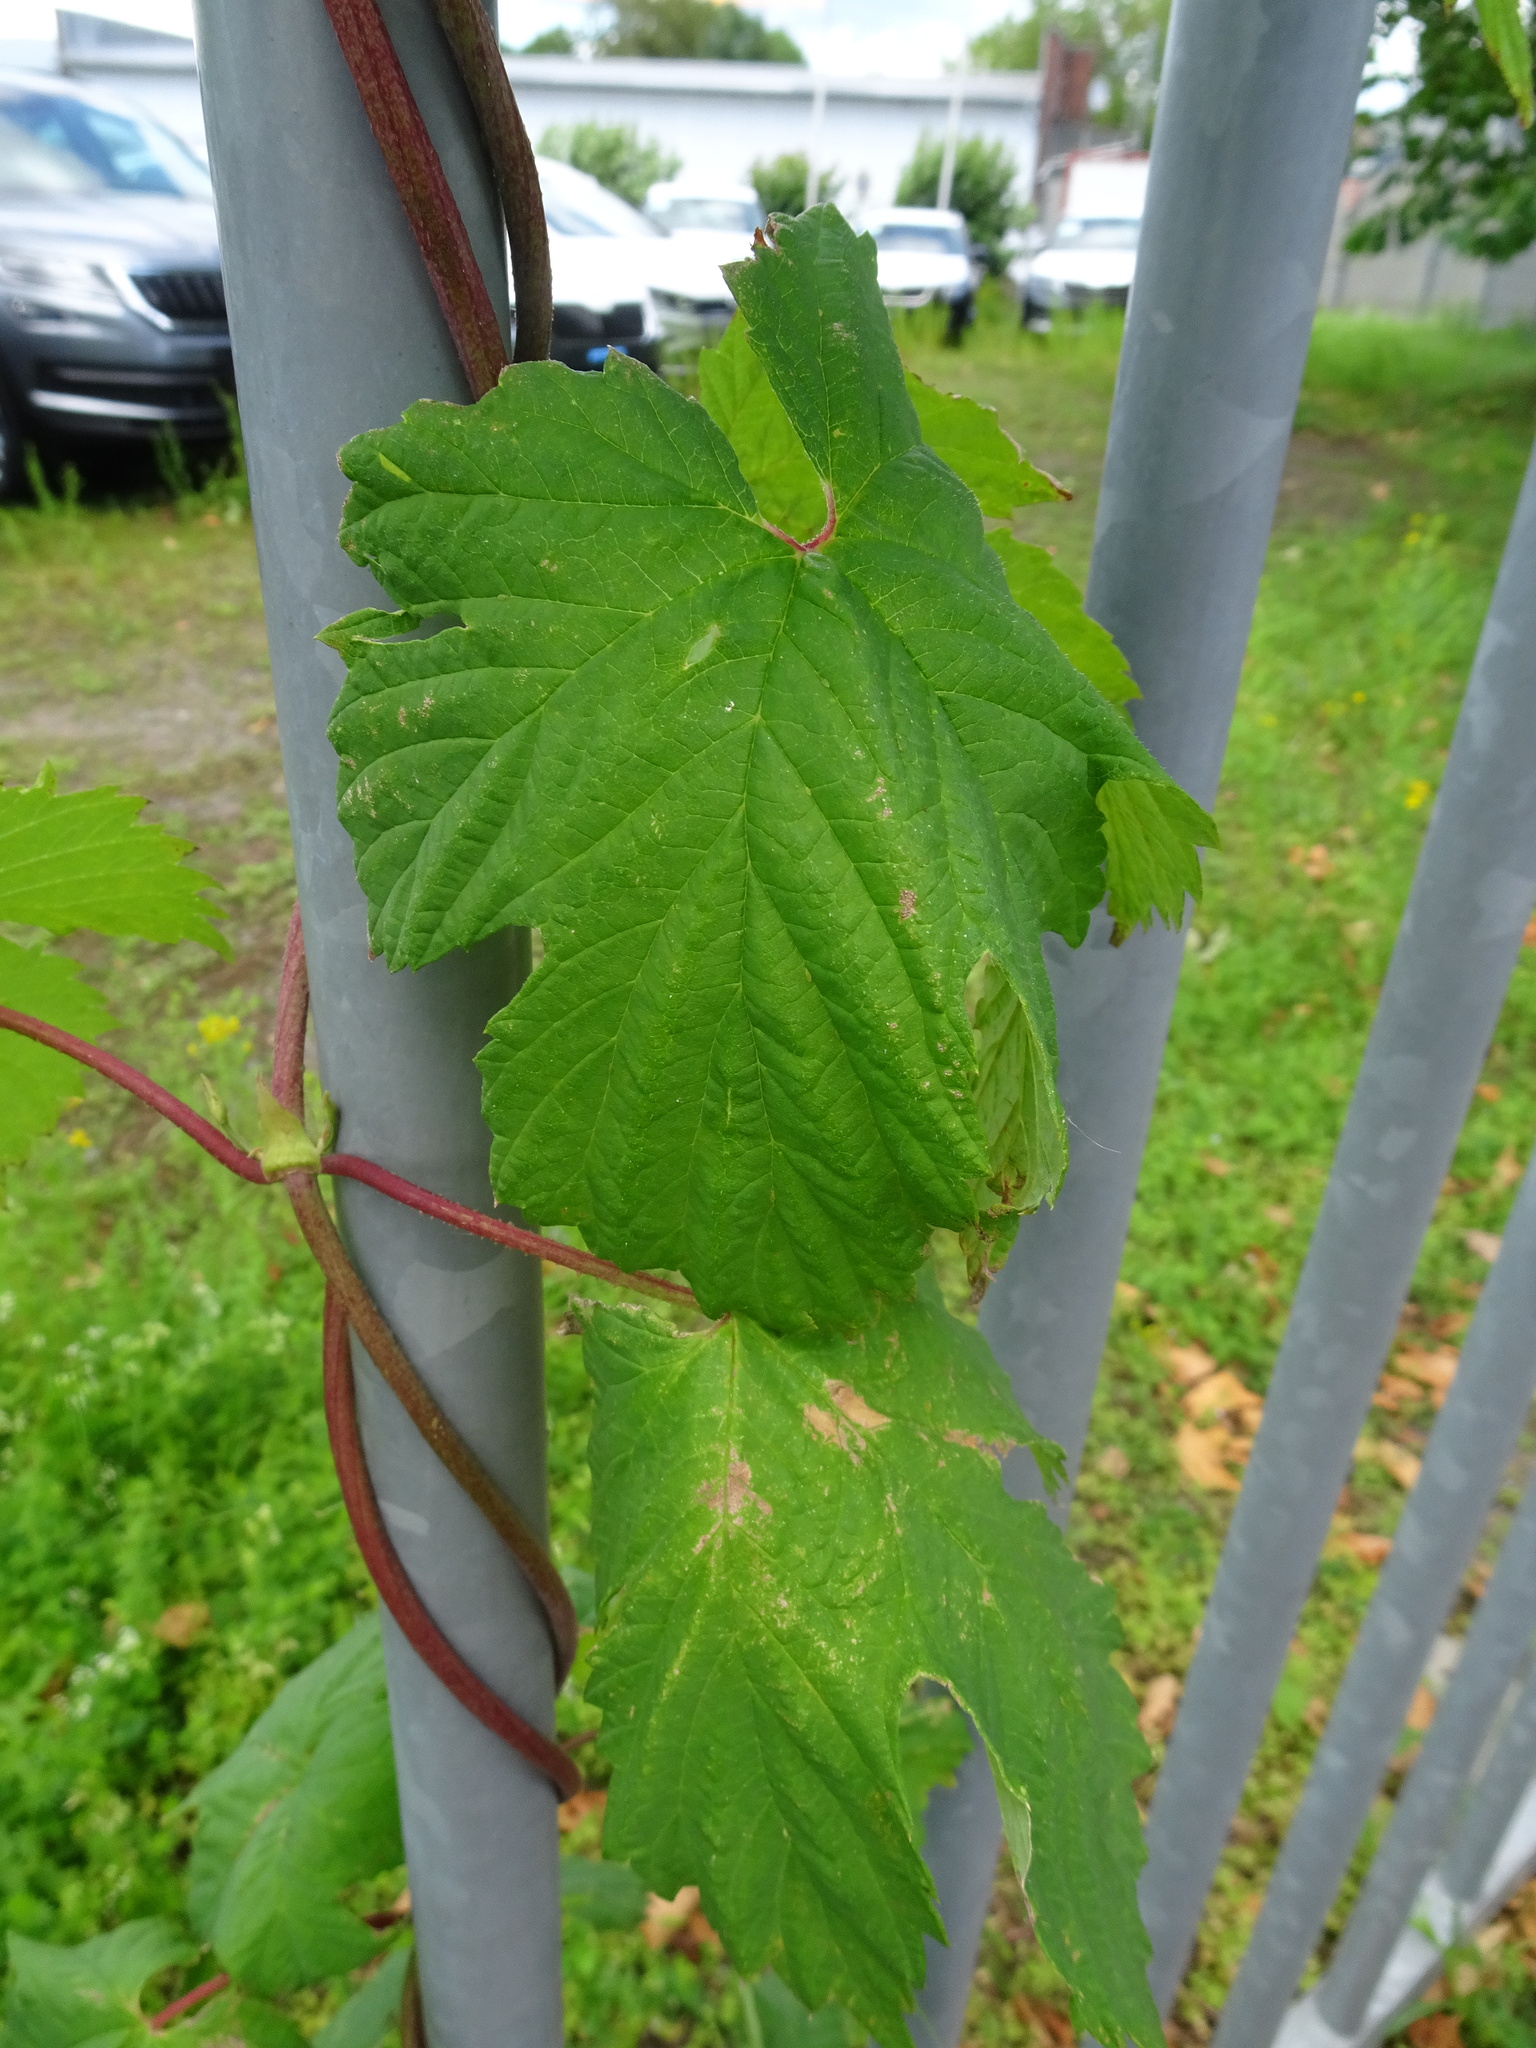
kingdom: Plantae
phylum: Tracheophyta
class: Magnoliopsida
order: Rosales
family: Cannabaceae
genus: Humulus
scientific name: Humulus lupulus
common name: Hop
